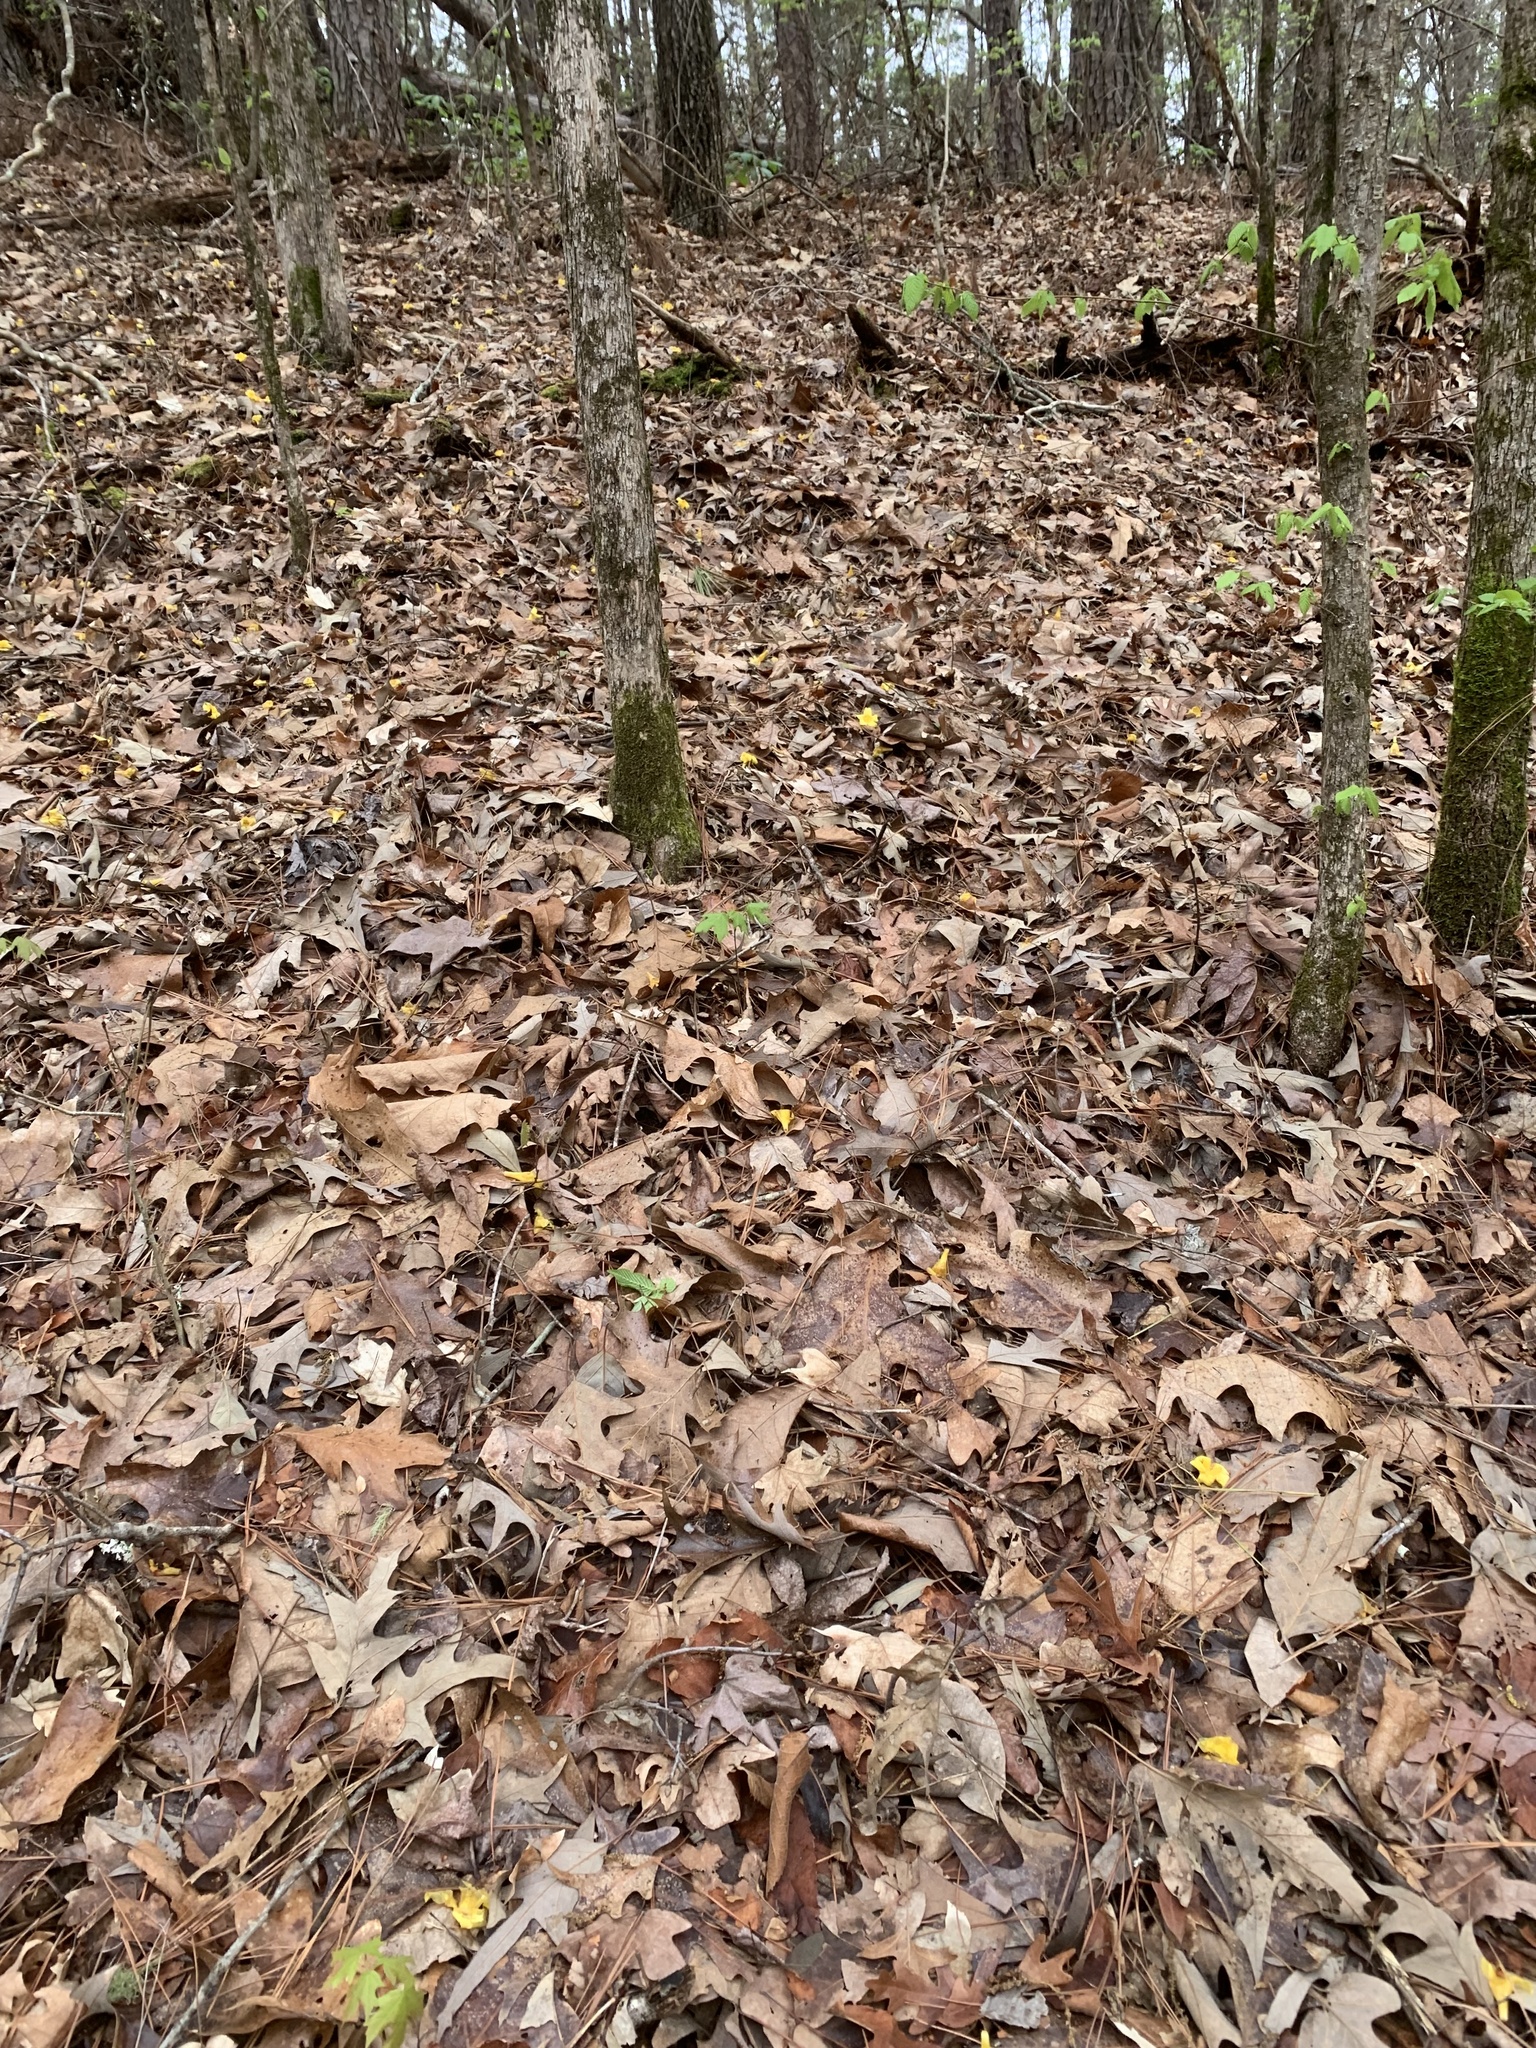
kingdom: Plantae
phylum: Tracheophyta
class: Magnoliopsida
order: Gentianales
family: Gelsemiaceae
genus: Gelsemium
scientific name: Gelsemium sempervirens
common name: Carolina-jasmine
